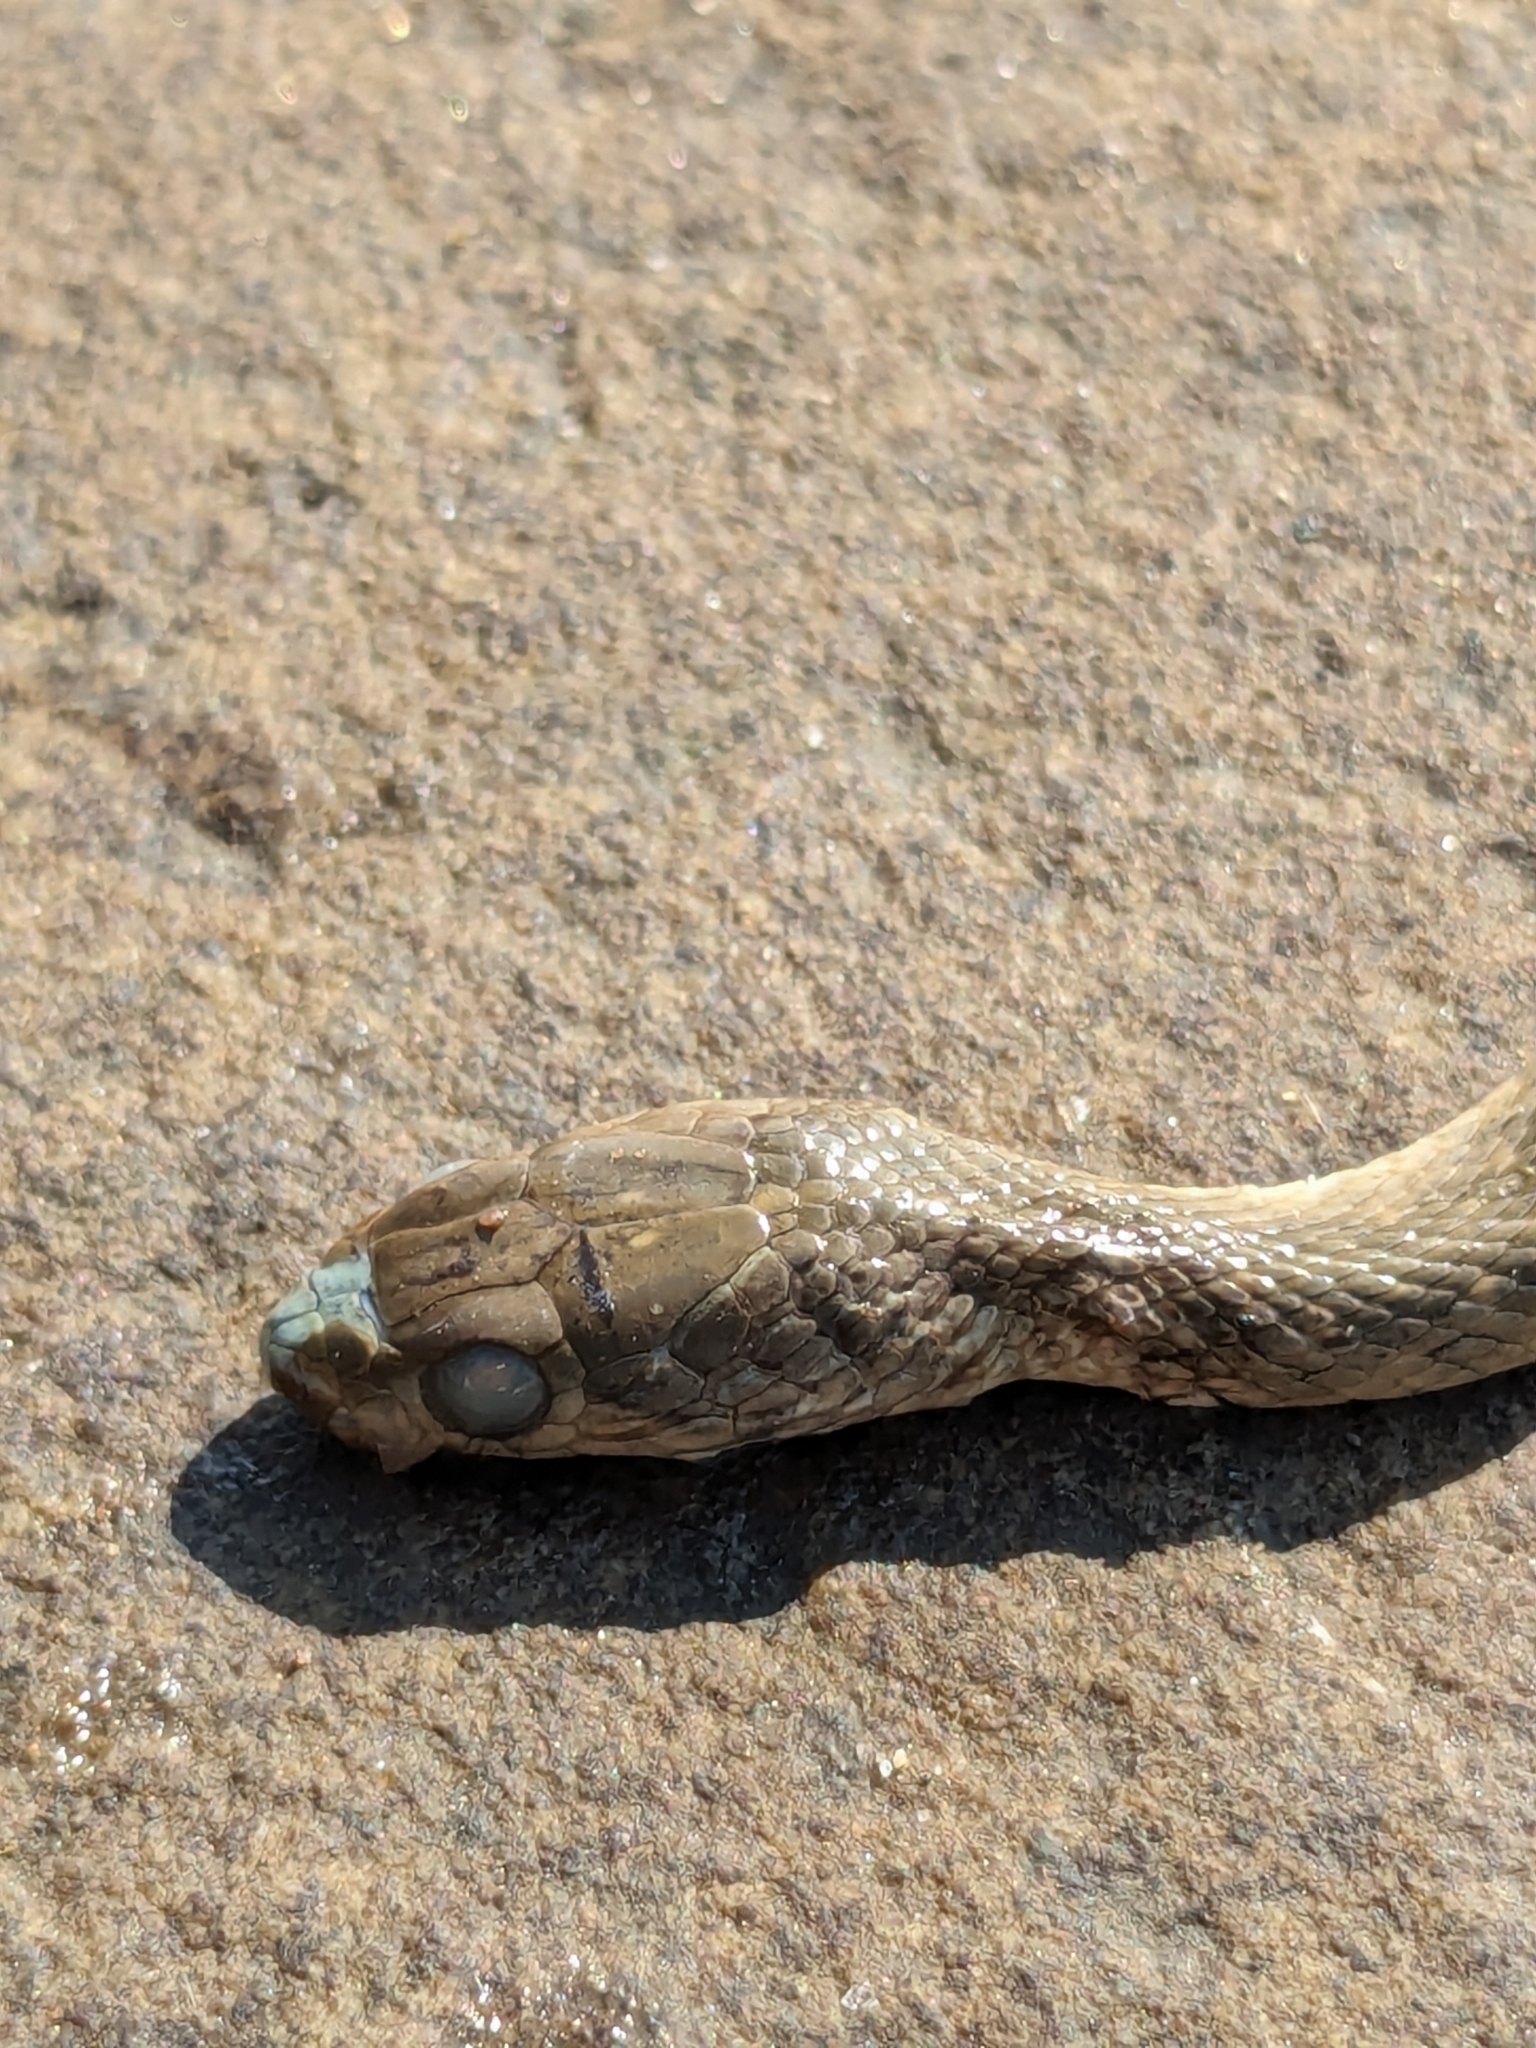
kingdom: Animalia
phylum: Chordata
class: Squamata
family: Colubridae
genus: Fowlea
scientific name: Fowlea piscator
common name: Asiatic water snake
